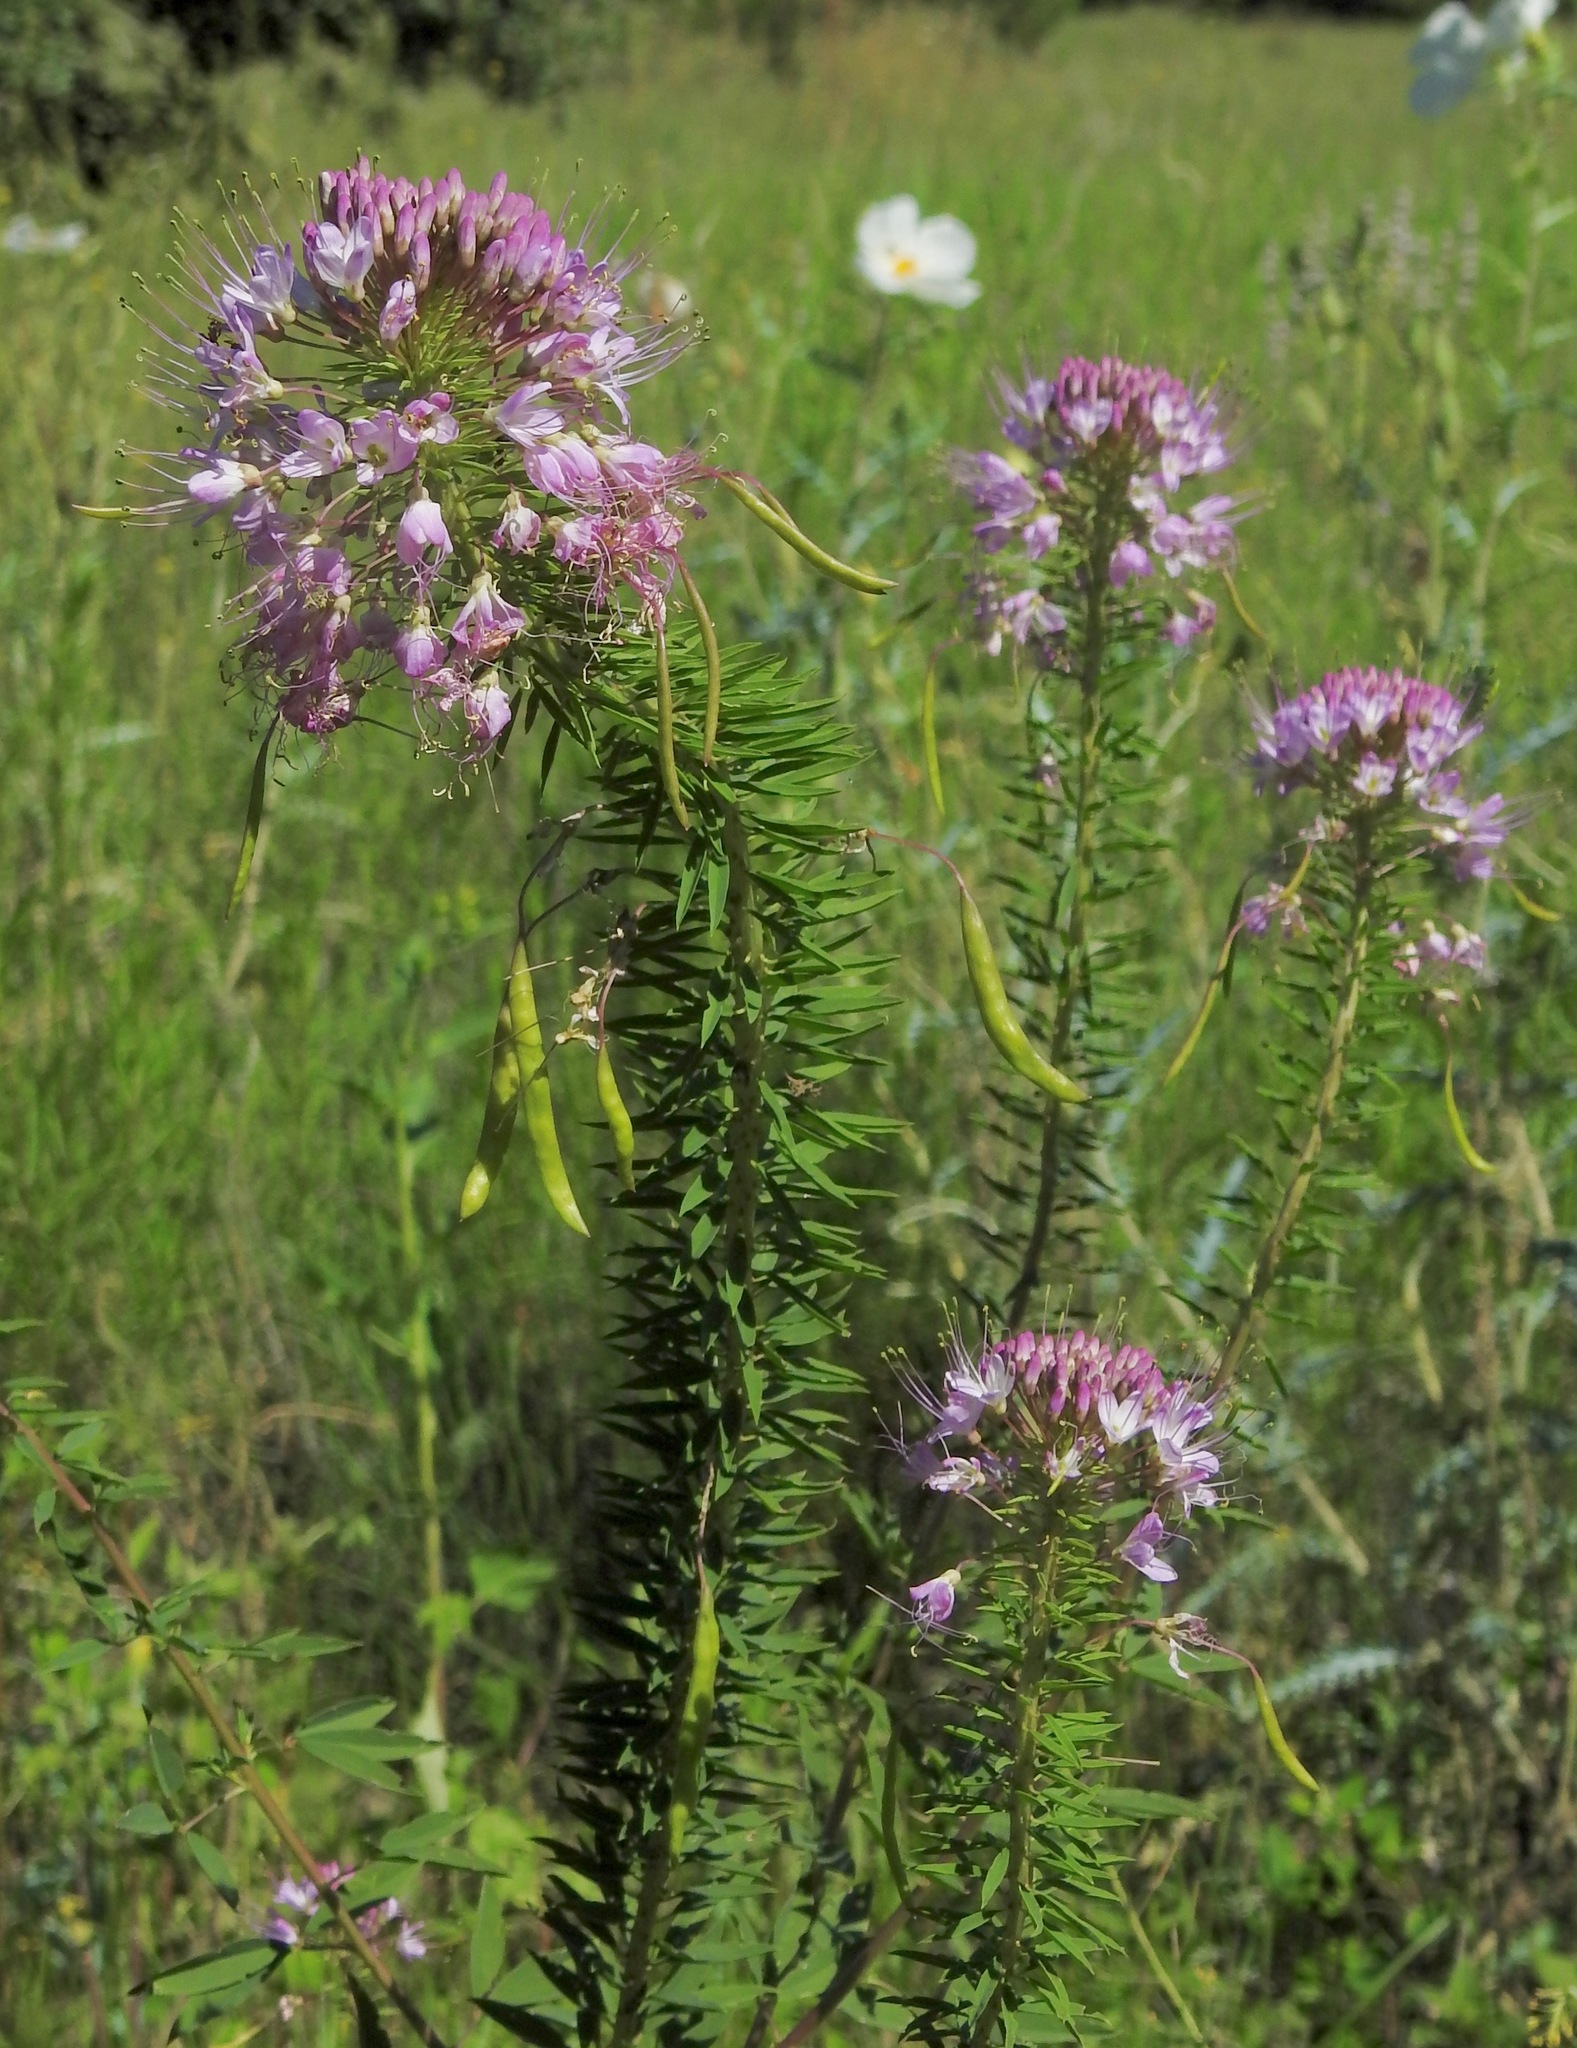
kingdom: Plantae
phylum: Tracheophyta
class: Magnoliopsida
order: Brassicales
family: Cleomaceae
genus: Cleomella
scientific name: Cleomella serrulata
